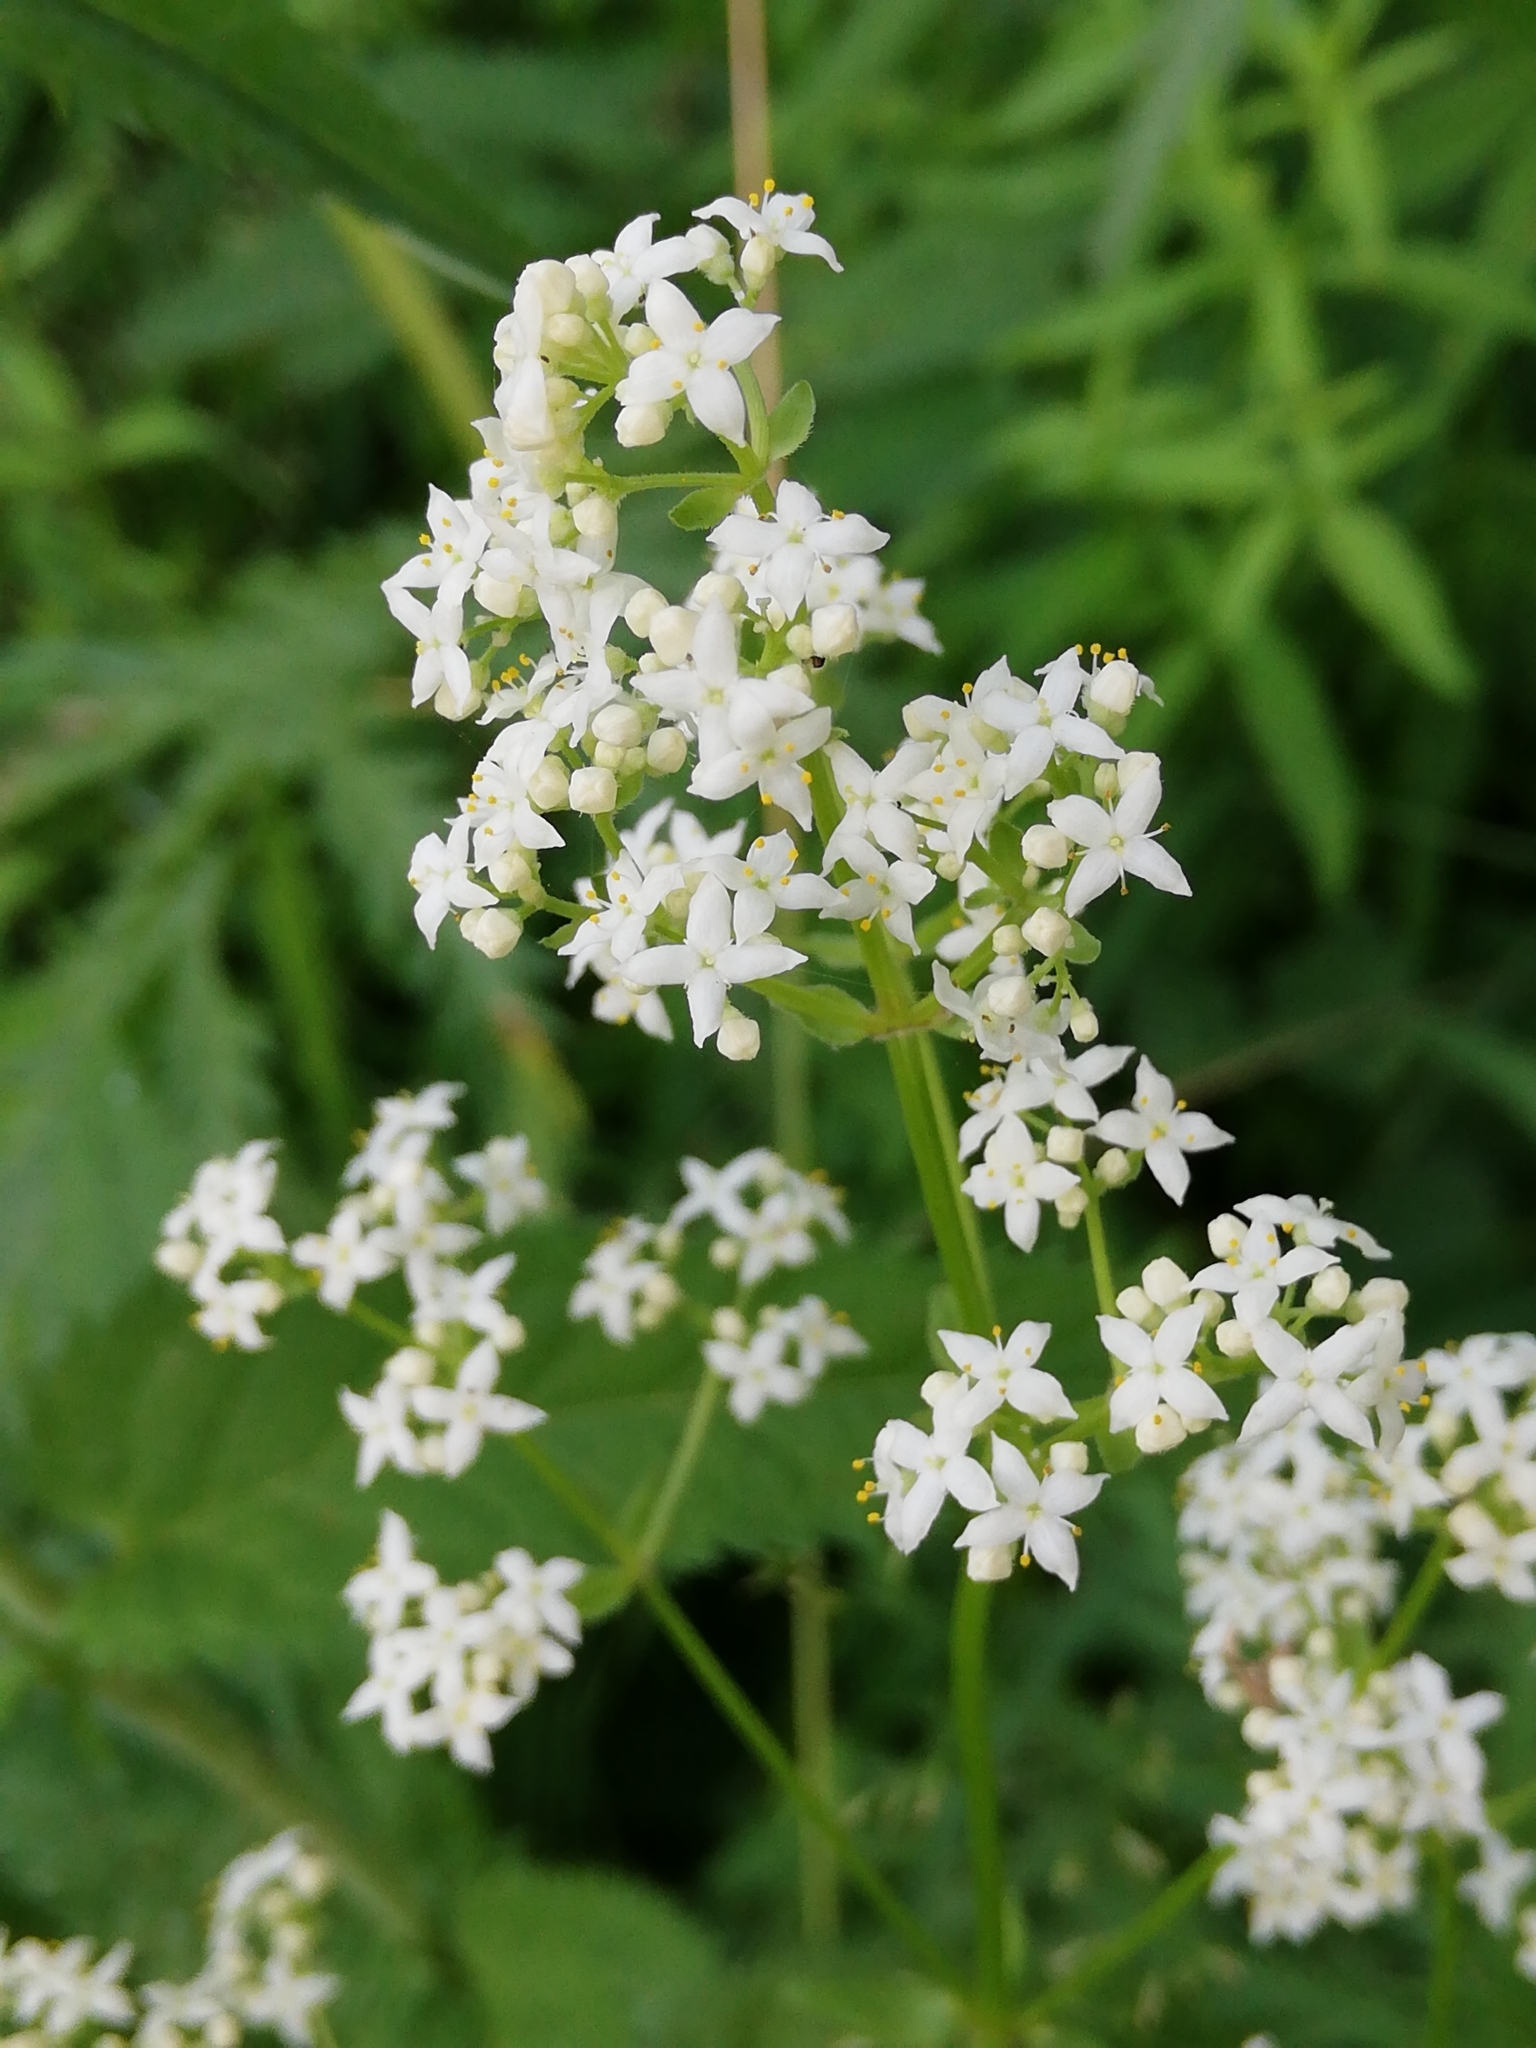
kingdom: Plantae
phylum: Tracheophyta
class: Magnoliopsida
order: Gentianales
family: Rubiaceae
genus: Galium
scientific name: Galium boreale
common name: Northern bedstraw
